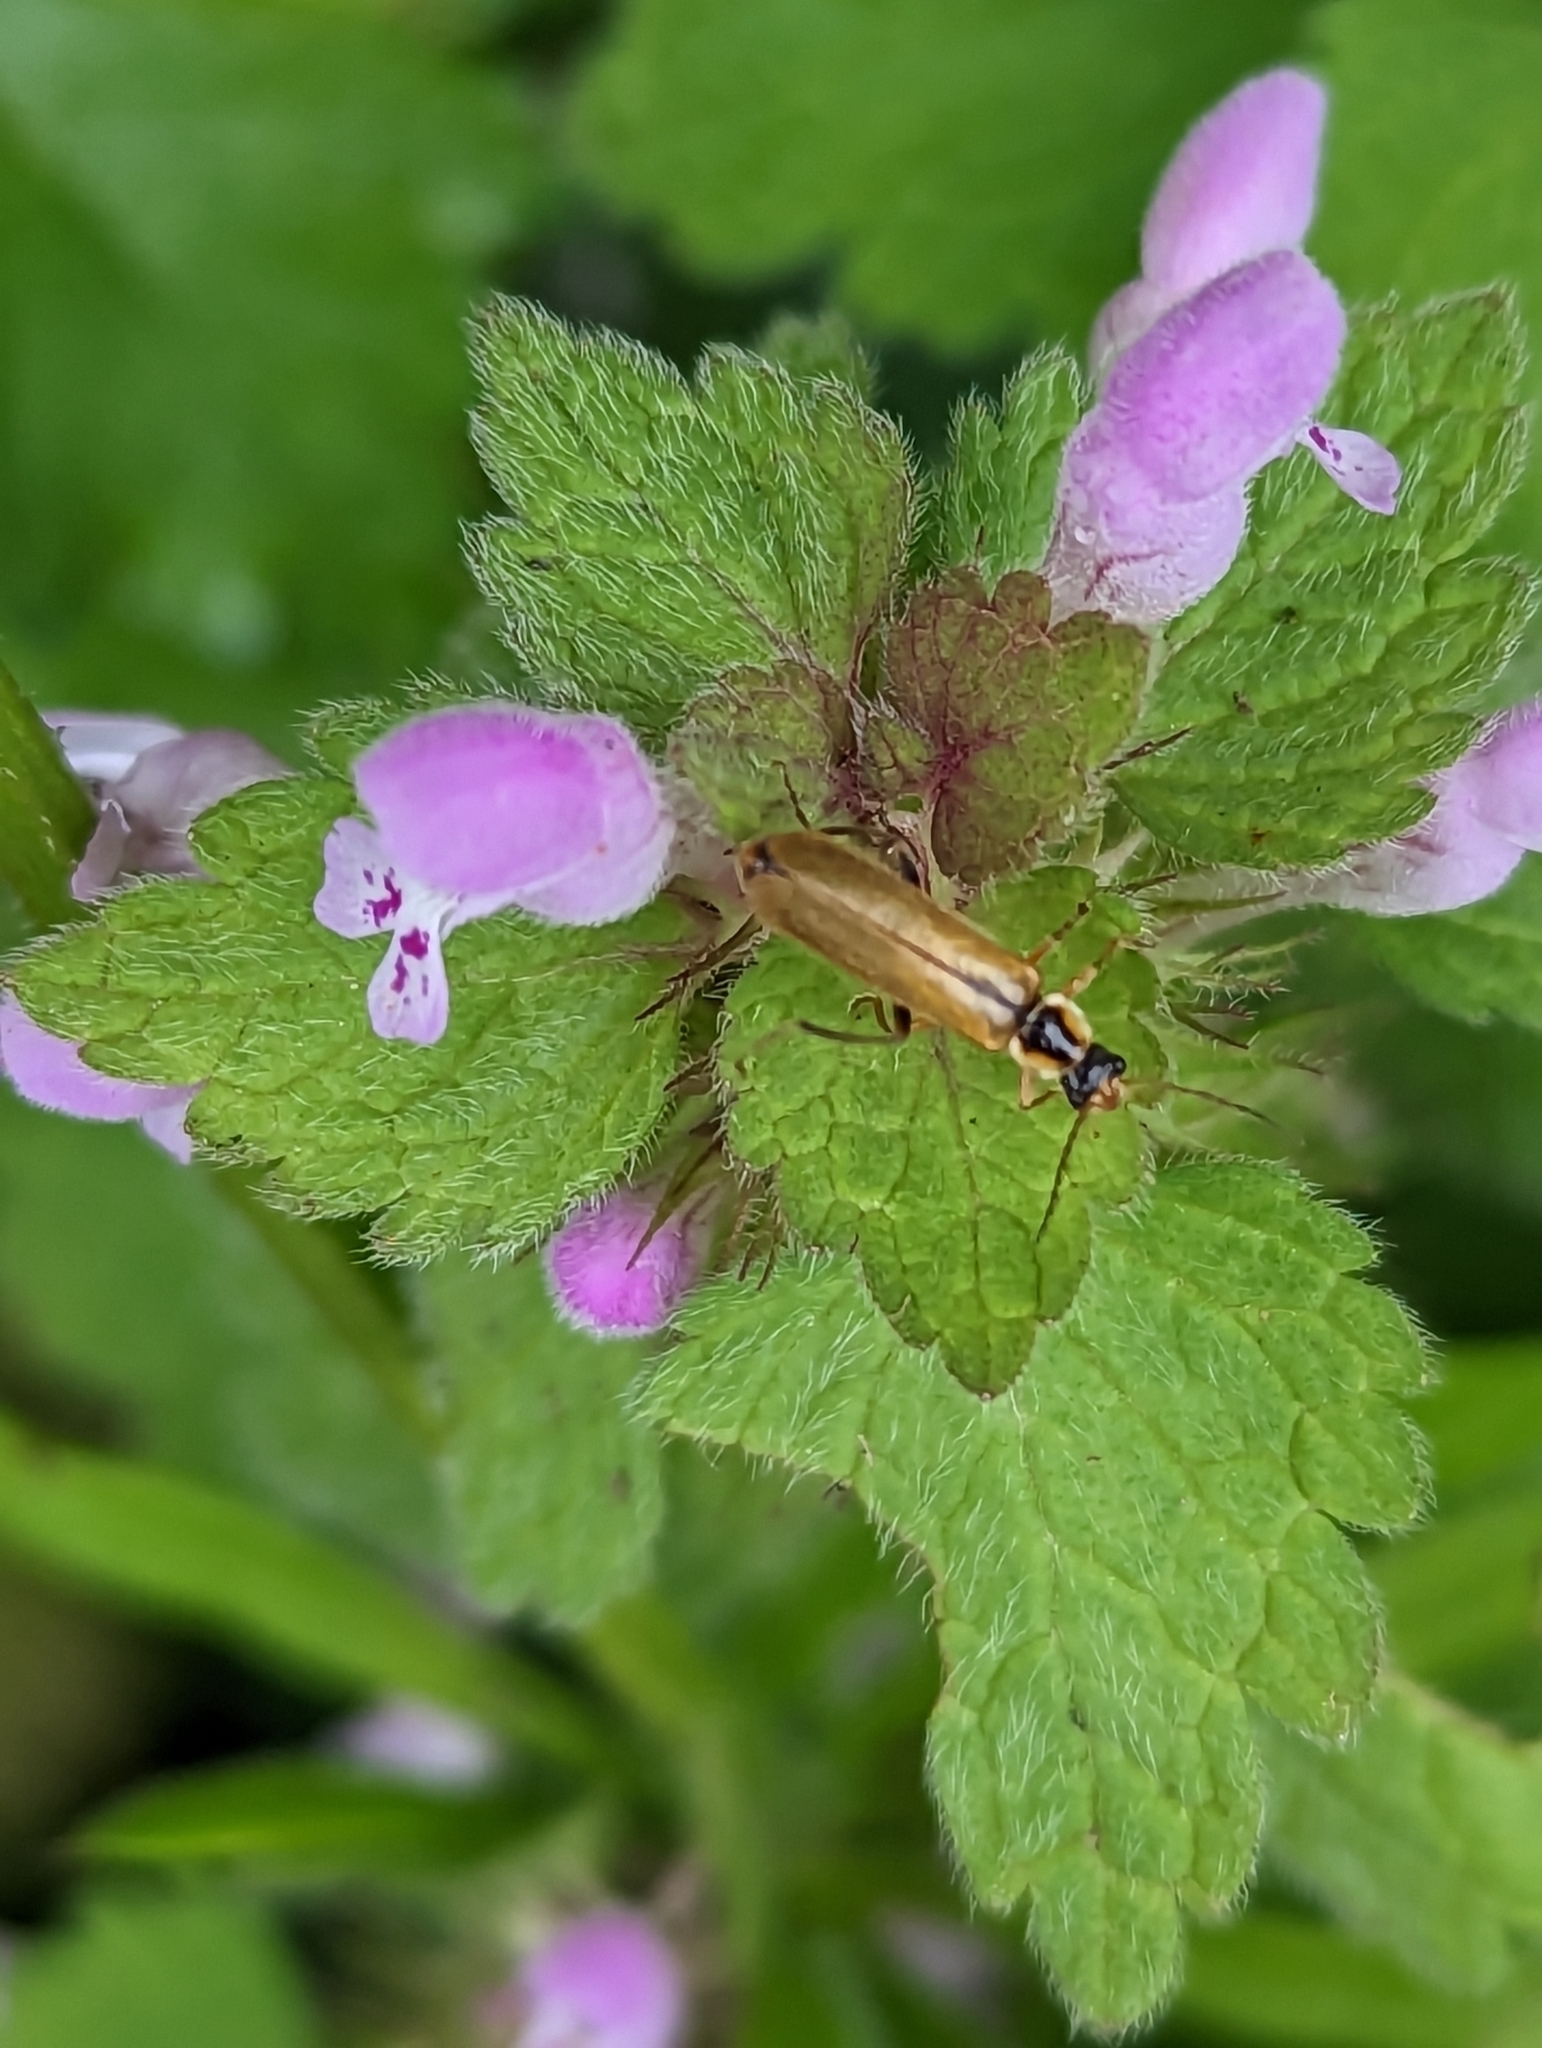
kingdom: Animalia
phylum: Arthropoda
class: Insecta
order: Coleoptera
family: Cantharidae
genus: Cantharis
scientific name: Cantharis decipiens
